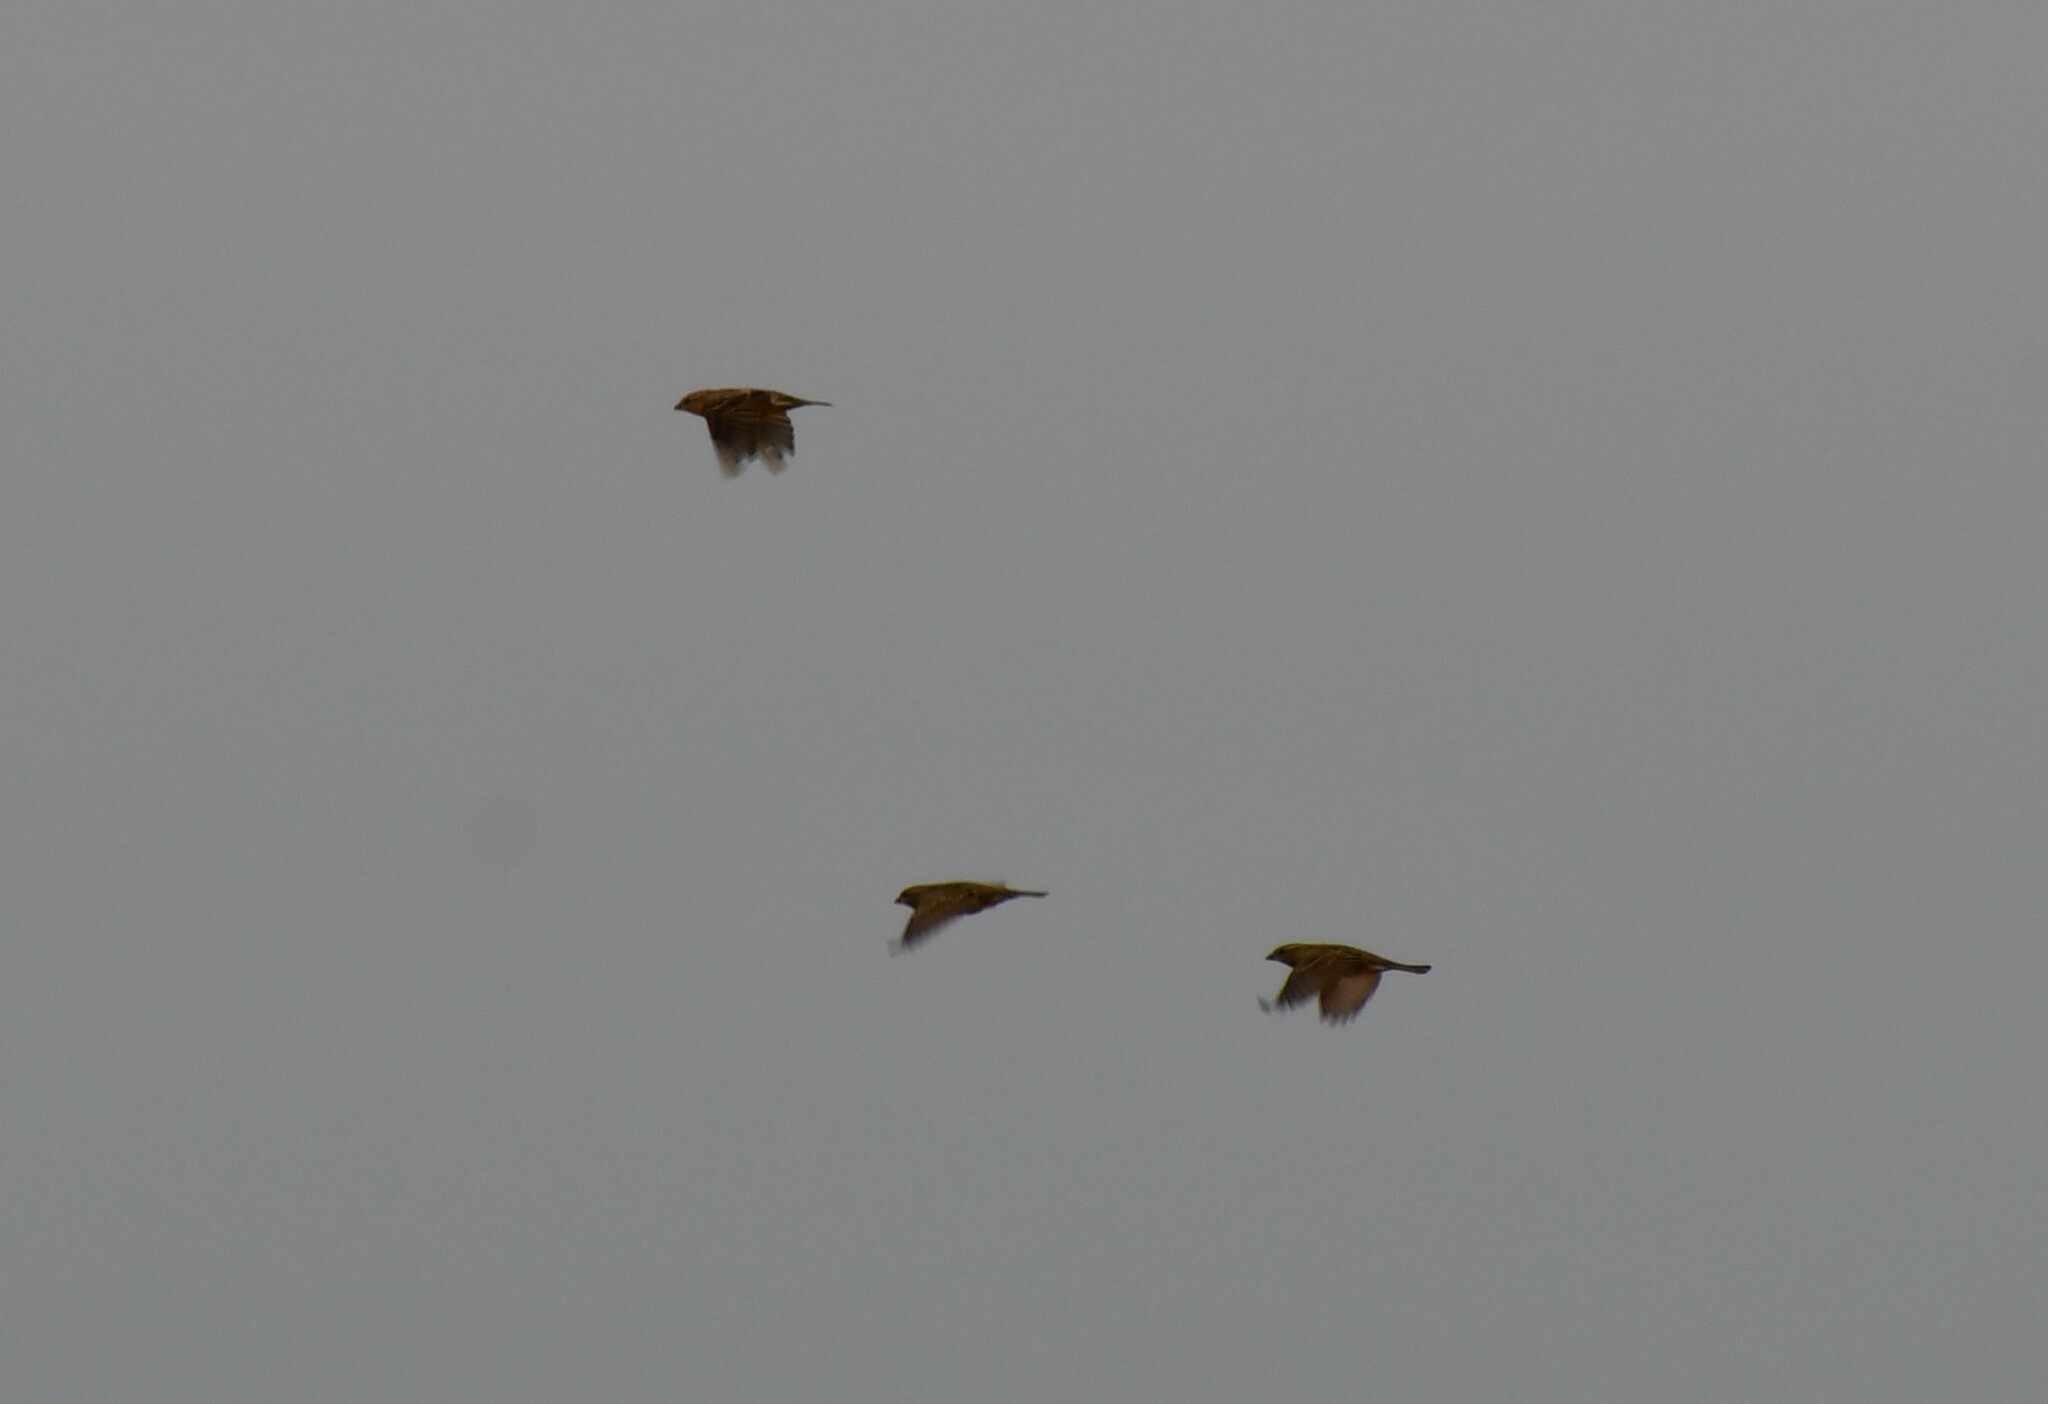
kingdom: Animalia
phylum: Chordata
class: Aves
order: Passeriformes
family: Passeridae
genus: Passer
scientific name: Passer domesticus
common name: House sparrow
